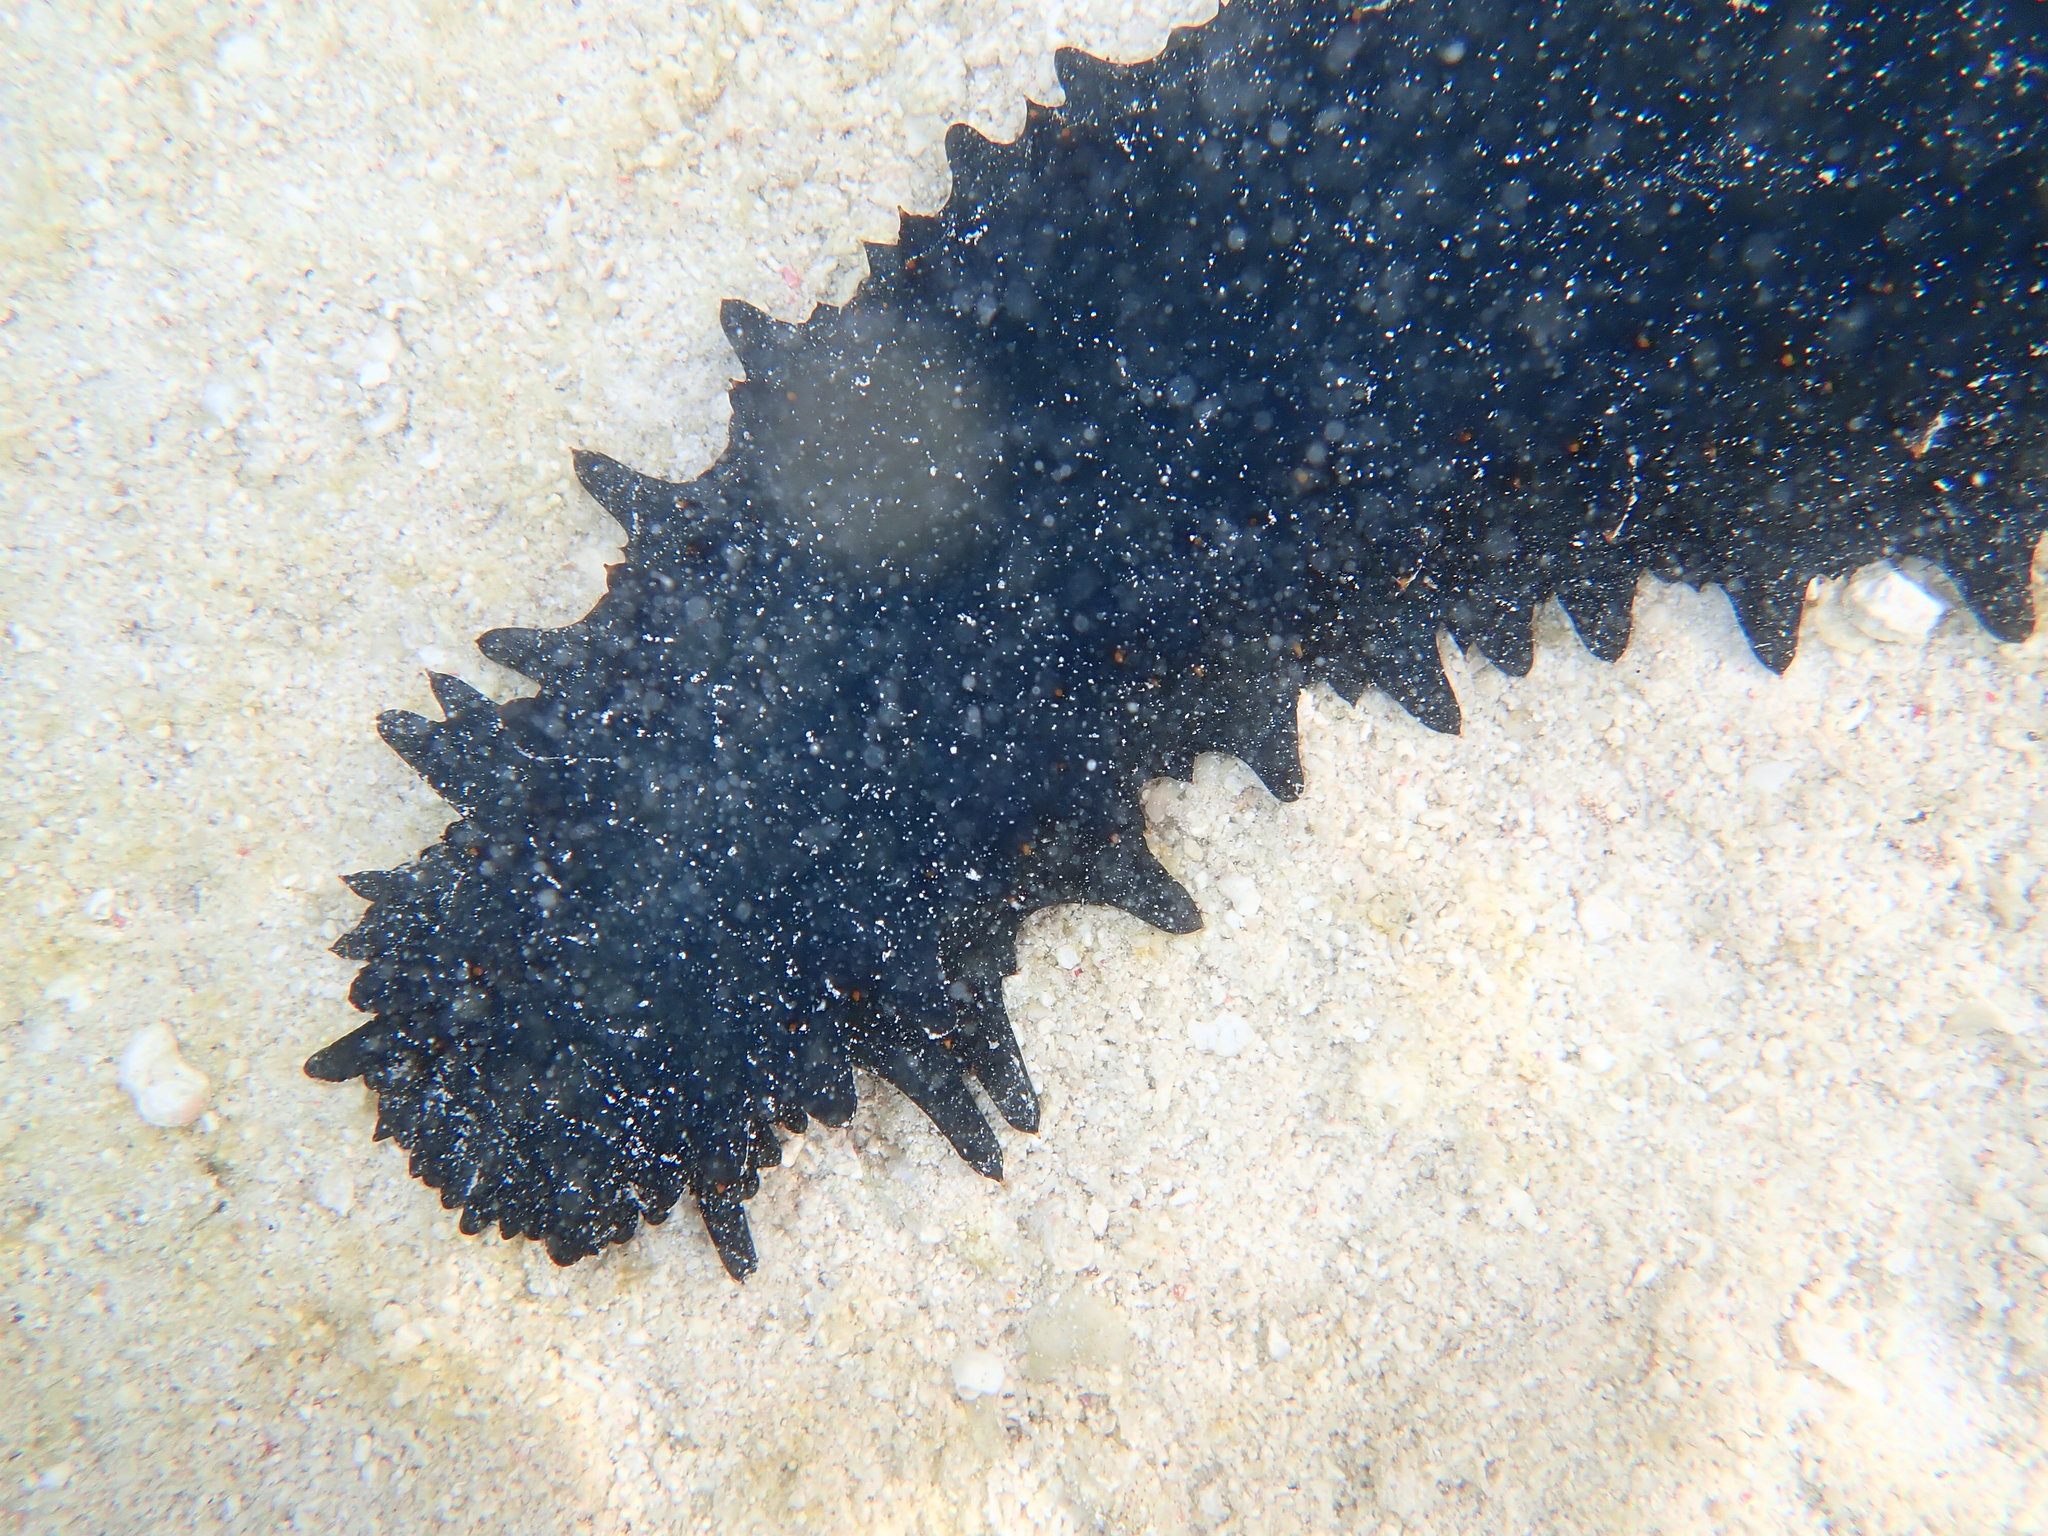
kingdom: Animalia
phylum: Echinodermata
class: Holothuroidea
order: Synallactida
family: Stichopodidae
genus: Stichopus
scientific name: Stichopus chloronotus
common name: Greenfish
